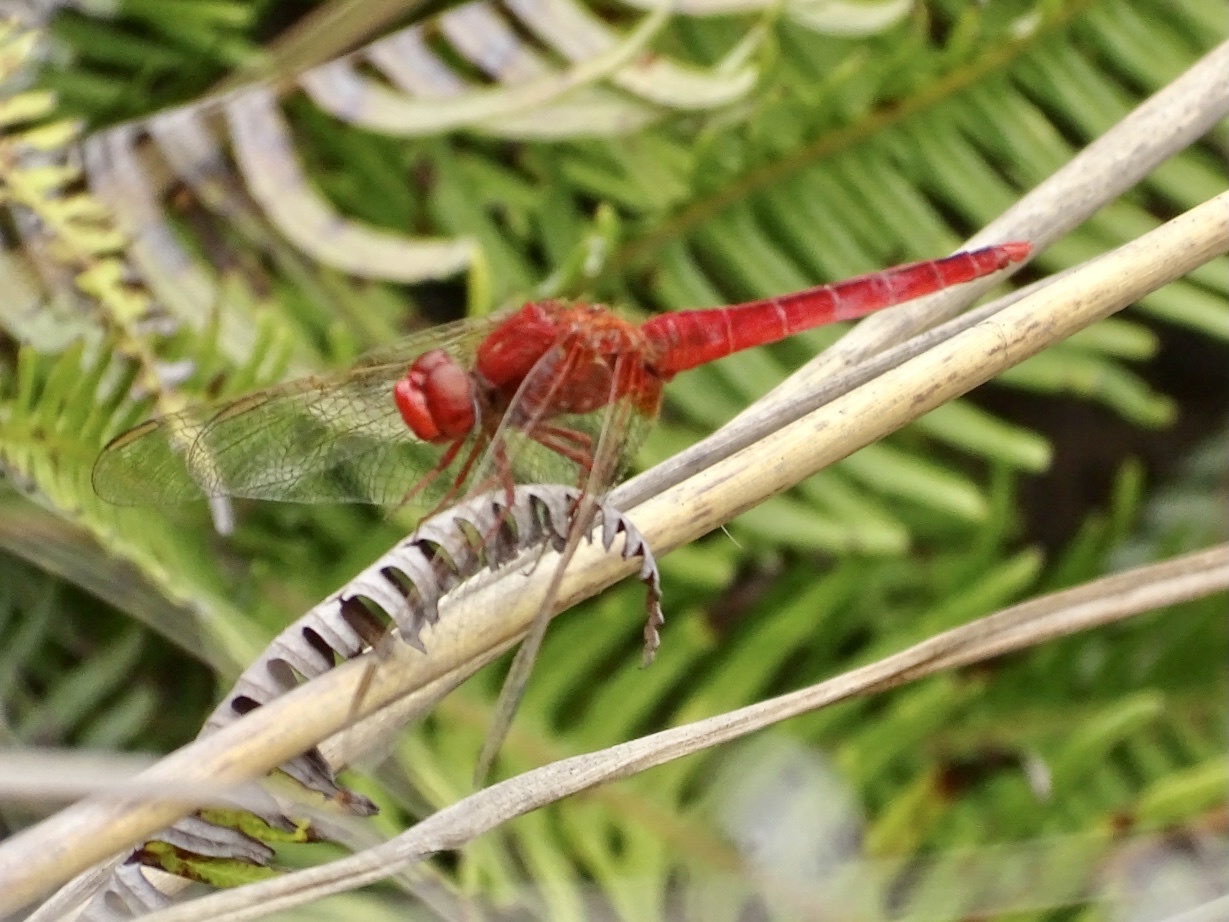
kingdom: Animalia
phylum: Arthropoda
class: Insecta
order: Odonata
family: Libellulidae
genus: Crocothemis
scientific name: Crocothemis servilia
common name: Scarlet skimmer
